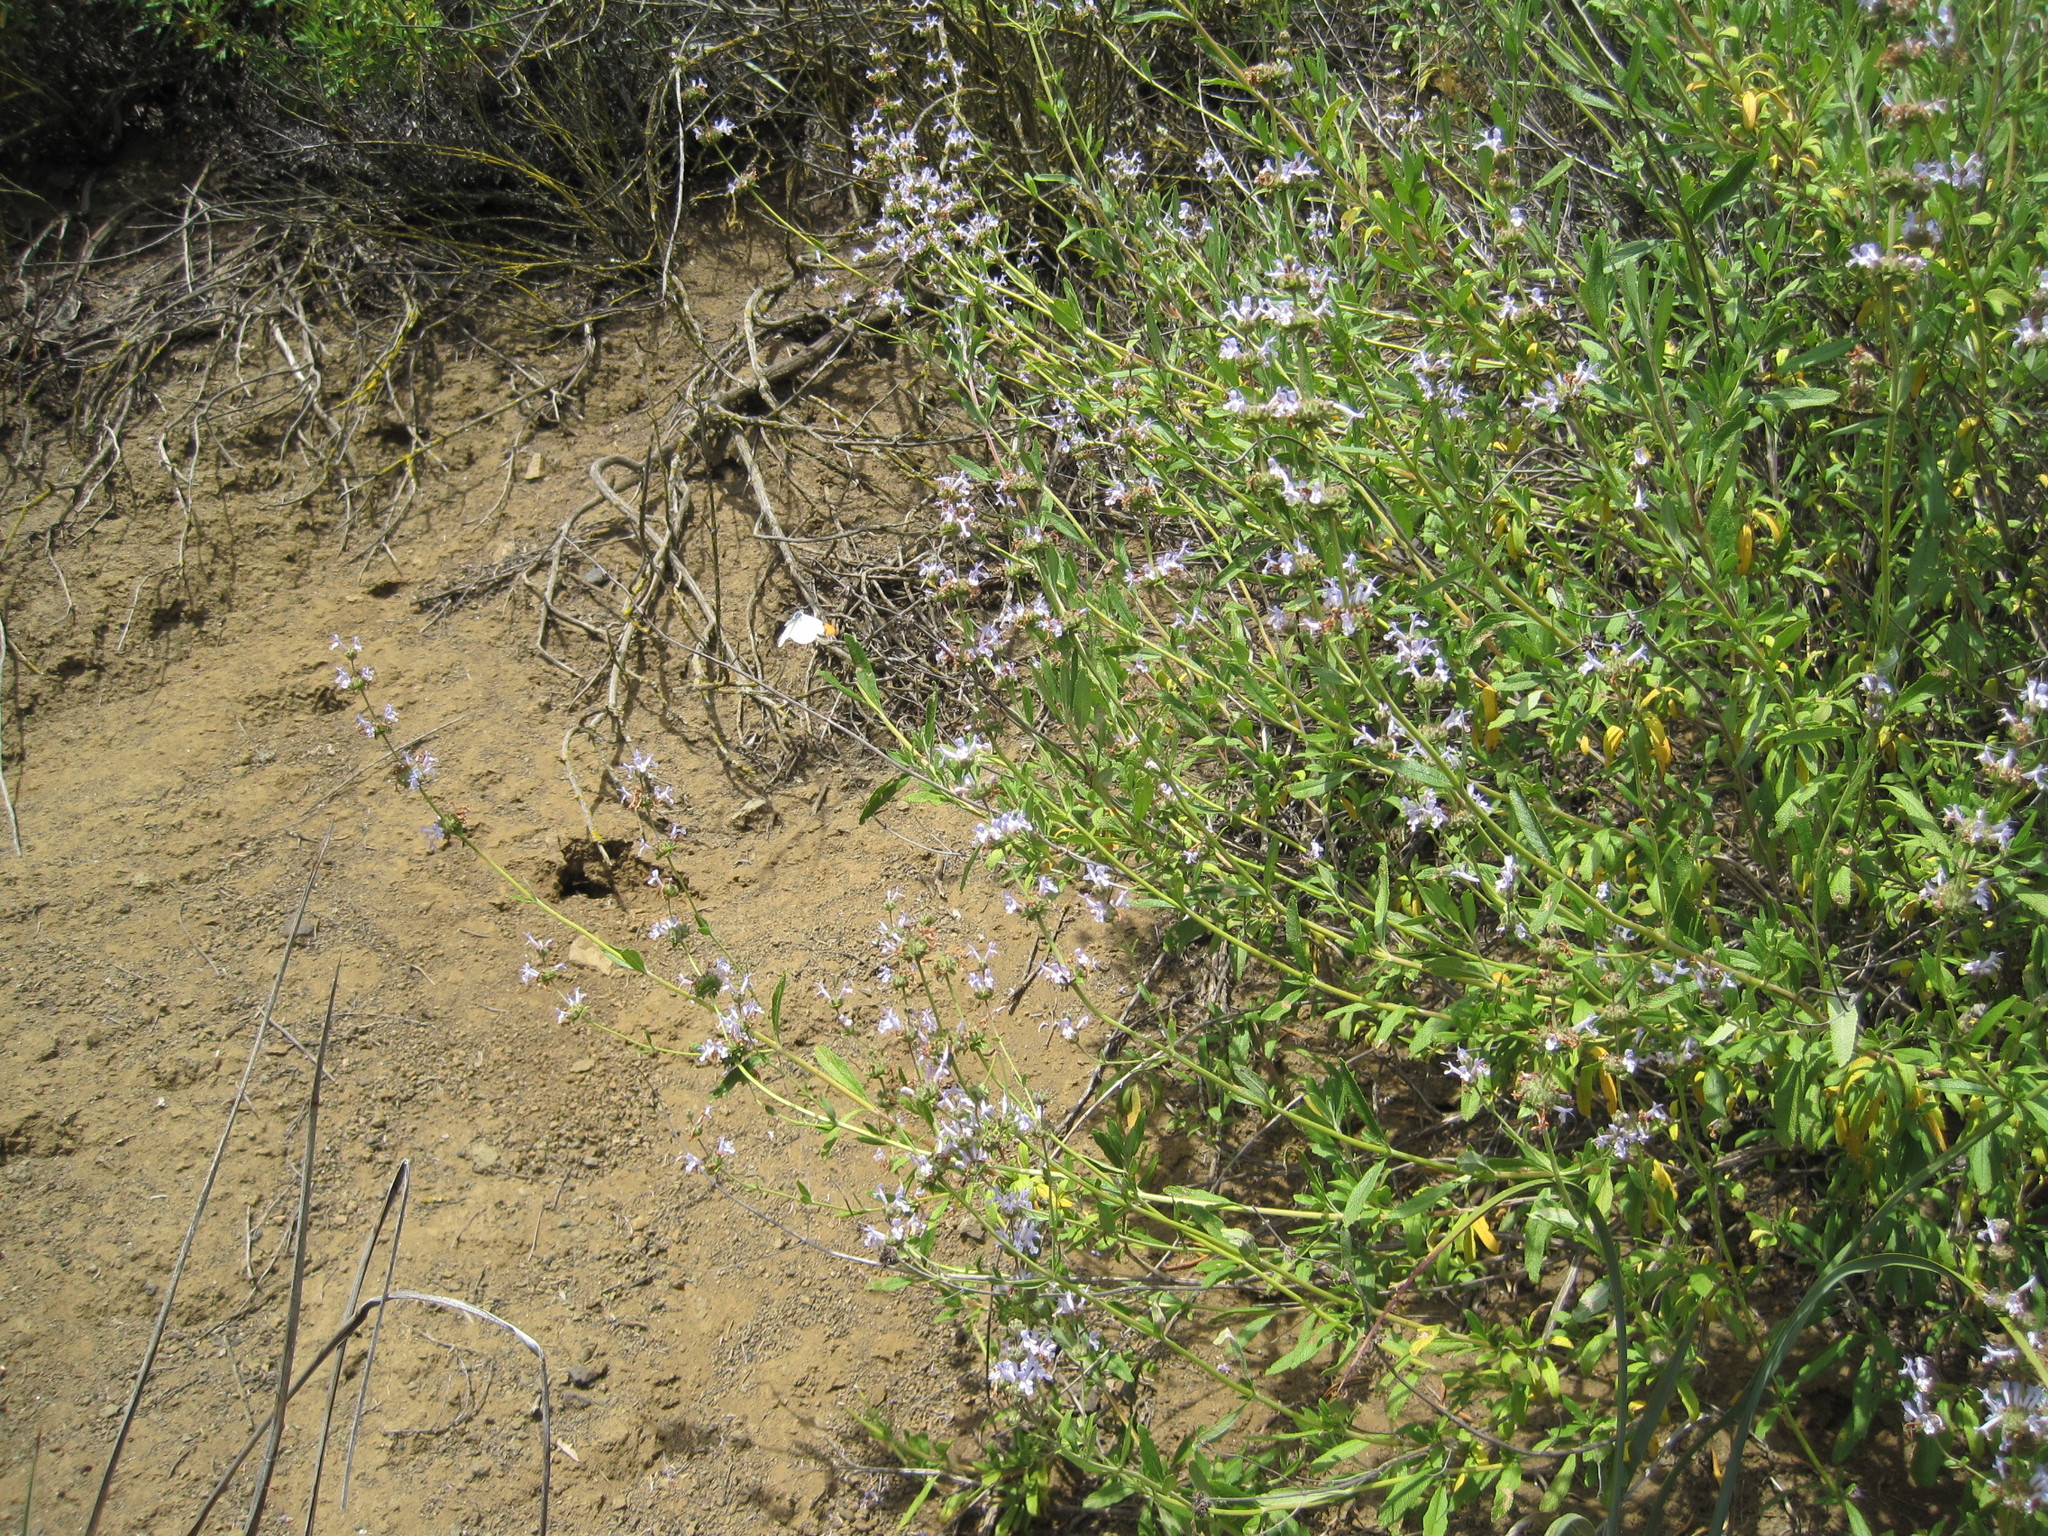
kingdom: Plantae
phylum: Tracheophyta
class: Magnoliopsida
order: Lamiales
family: Lamiaceae
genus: Salvia
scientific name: Salvia mellifera
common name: Black sage
